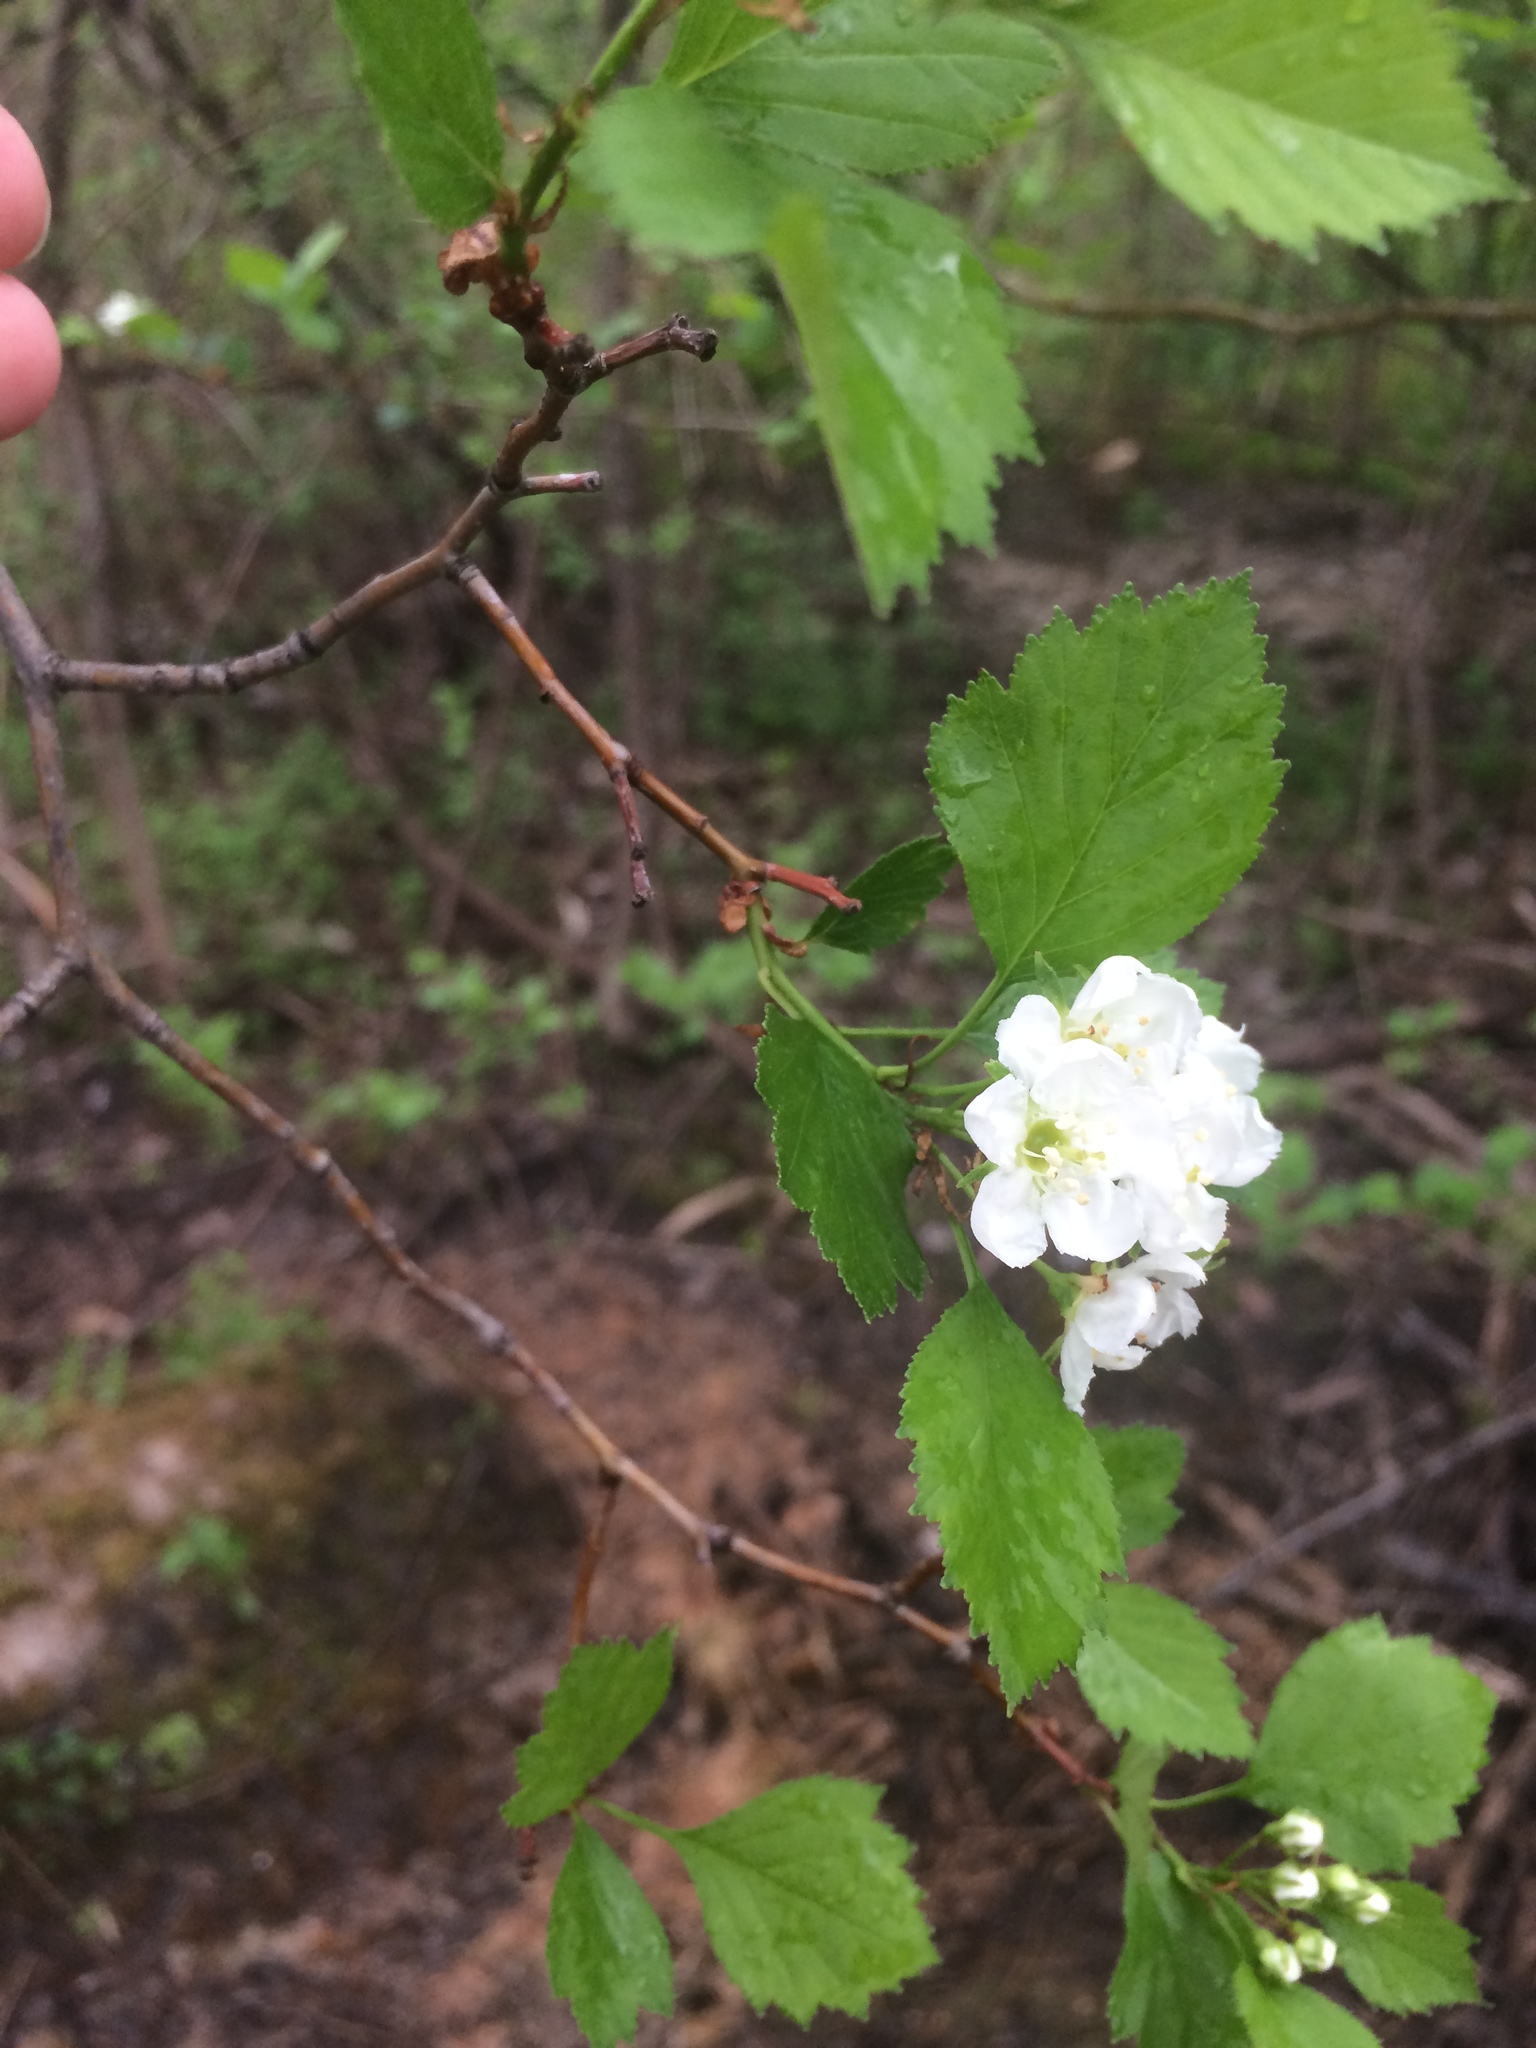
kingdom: Plantae
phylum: Tracheophyta
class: Magnoliopsida
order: Rosales
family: Rosaceae
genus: Crataegus
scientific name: Crataegus chrysocarpa
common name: Fire-berry hawthorn
